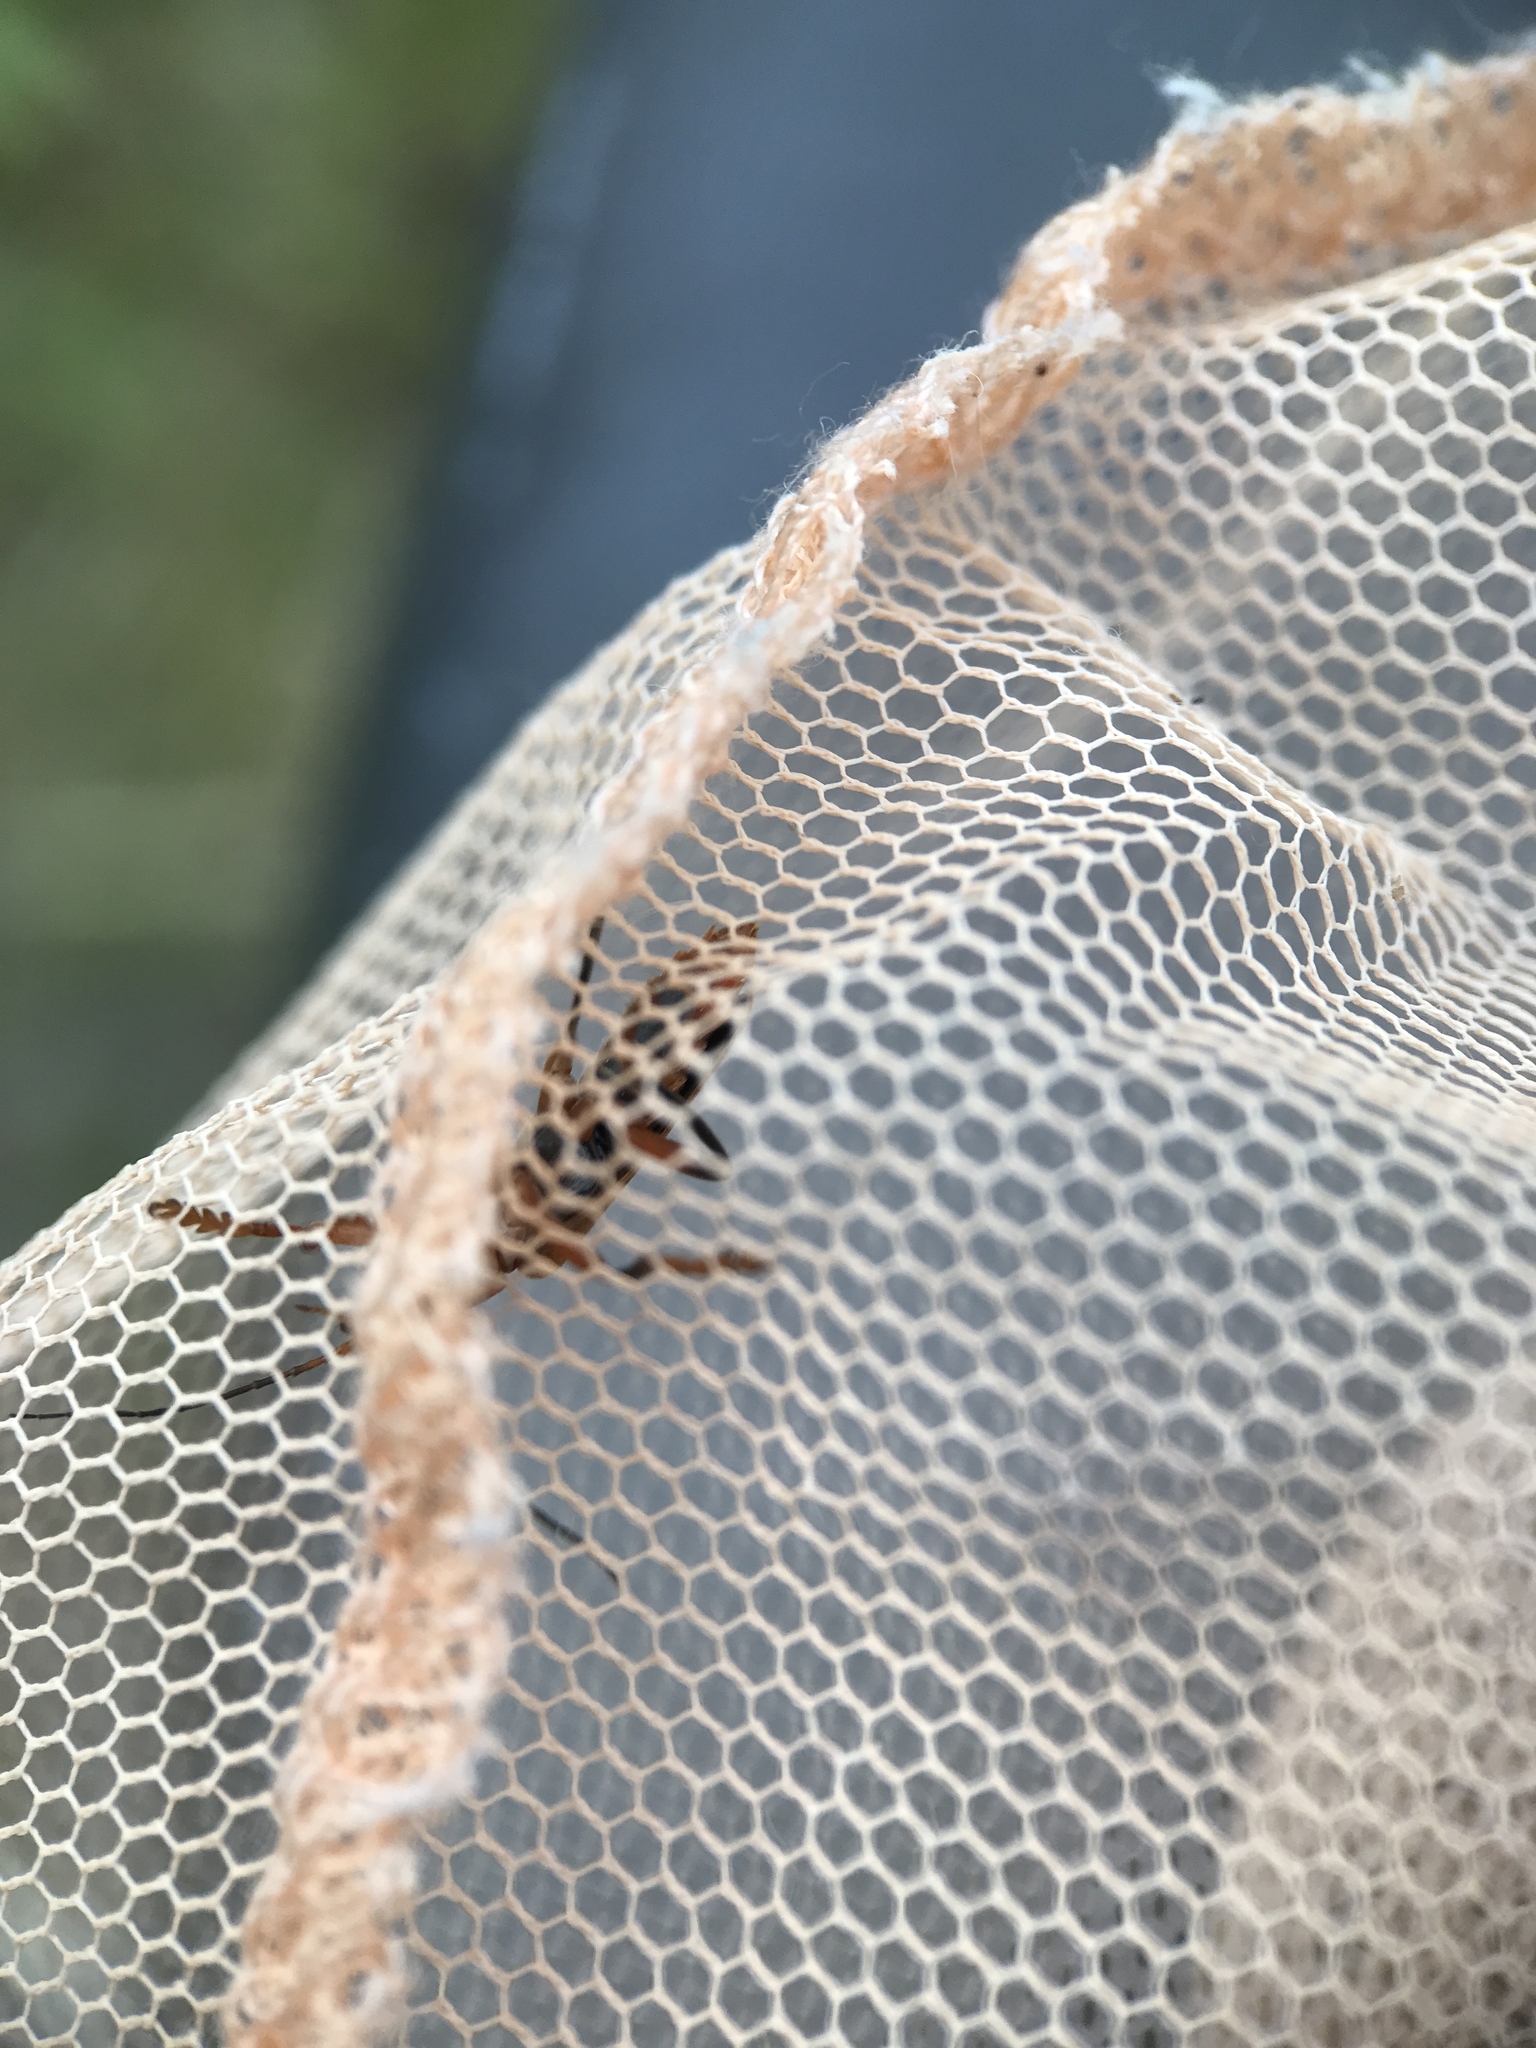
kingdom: Animalia
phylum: Arthropoda
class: Insecta
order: Coleoptera
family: Cantharidae
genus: Cantharis
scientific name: Cantharis livida
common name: Livid soldier beetle
